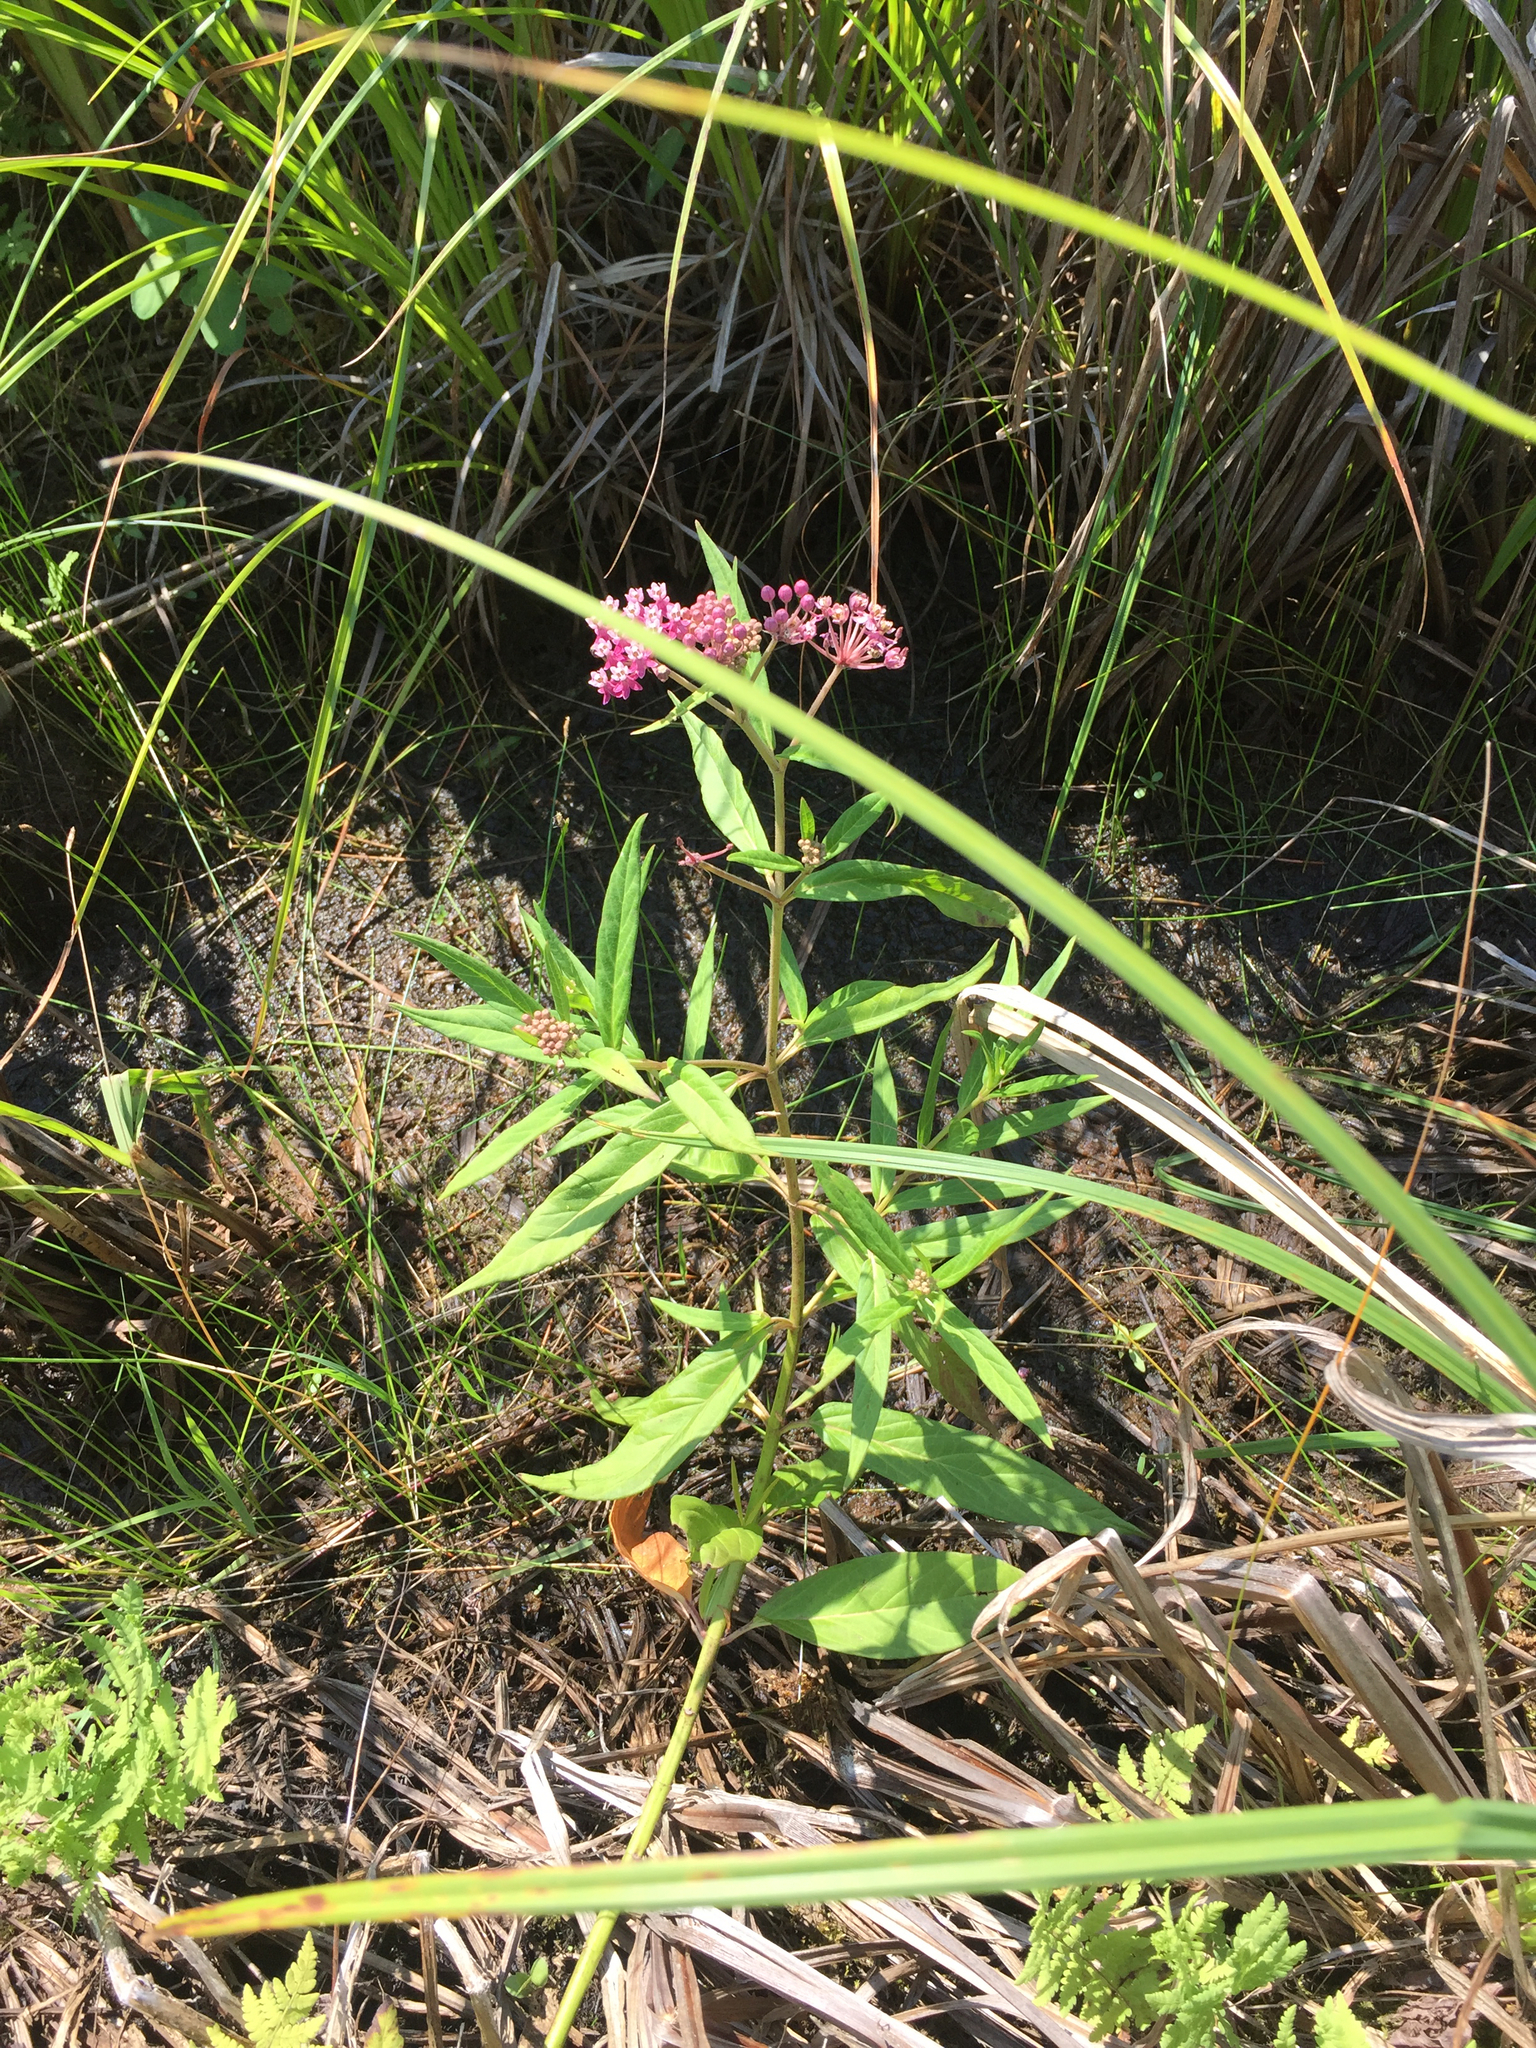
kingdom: Plantae
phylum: Tracheophyta
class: Magnoliopsida
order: Gentianales
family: Apocynaceae
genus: Asclepias
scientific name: Asclepias incarnata
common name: Swamp milkweed
